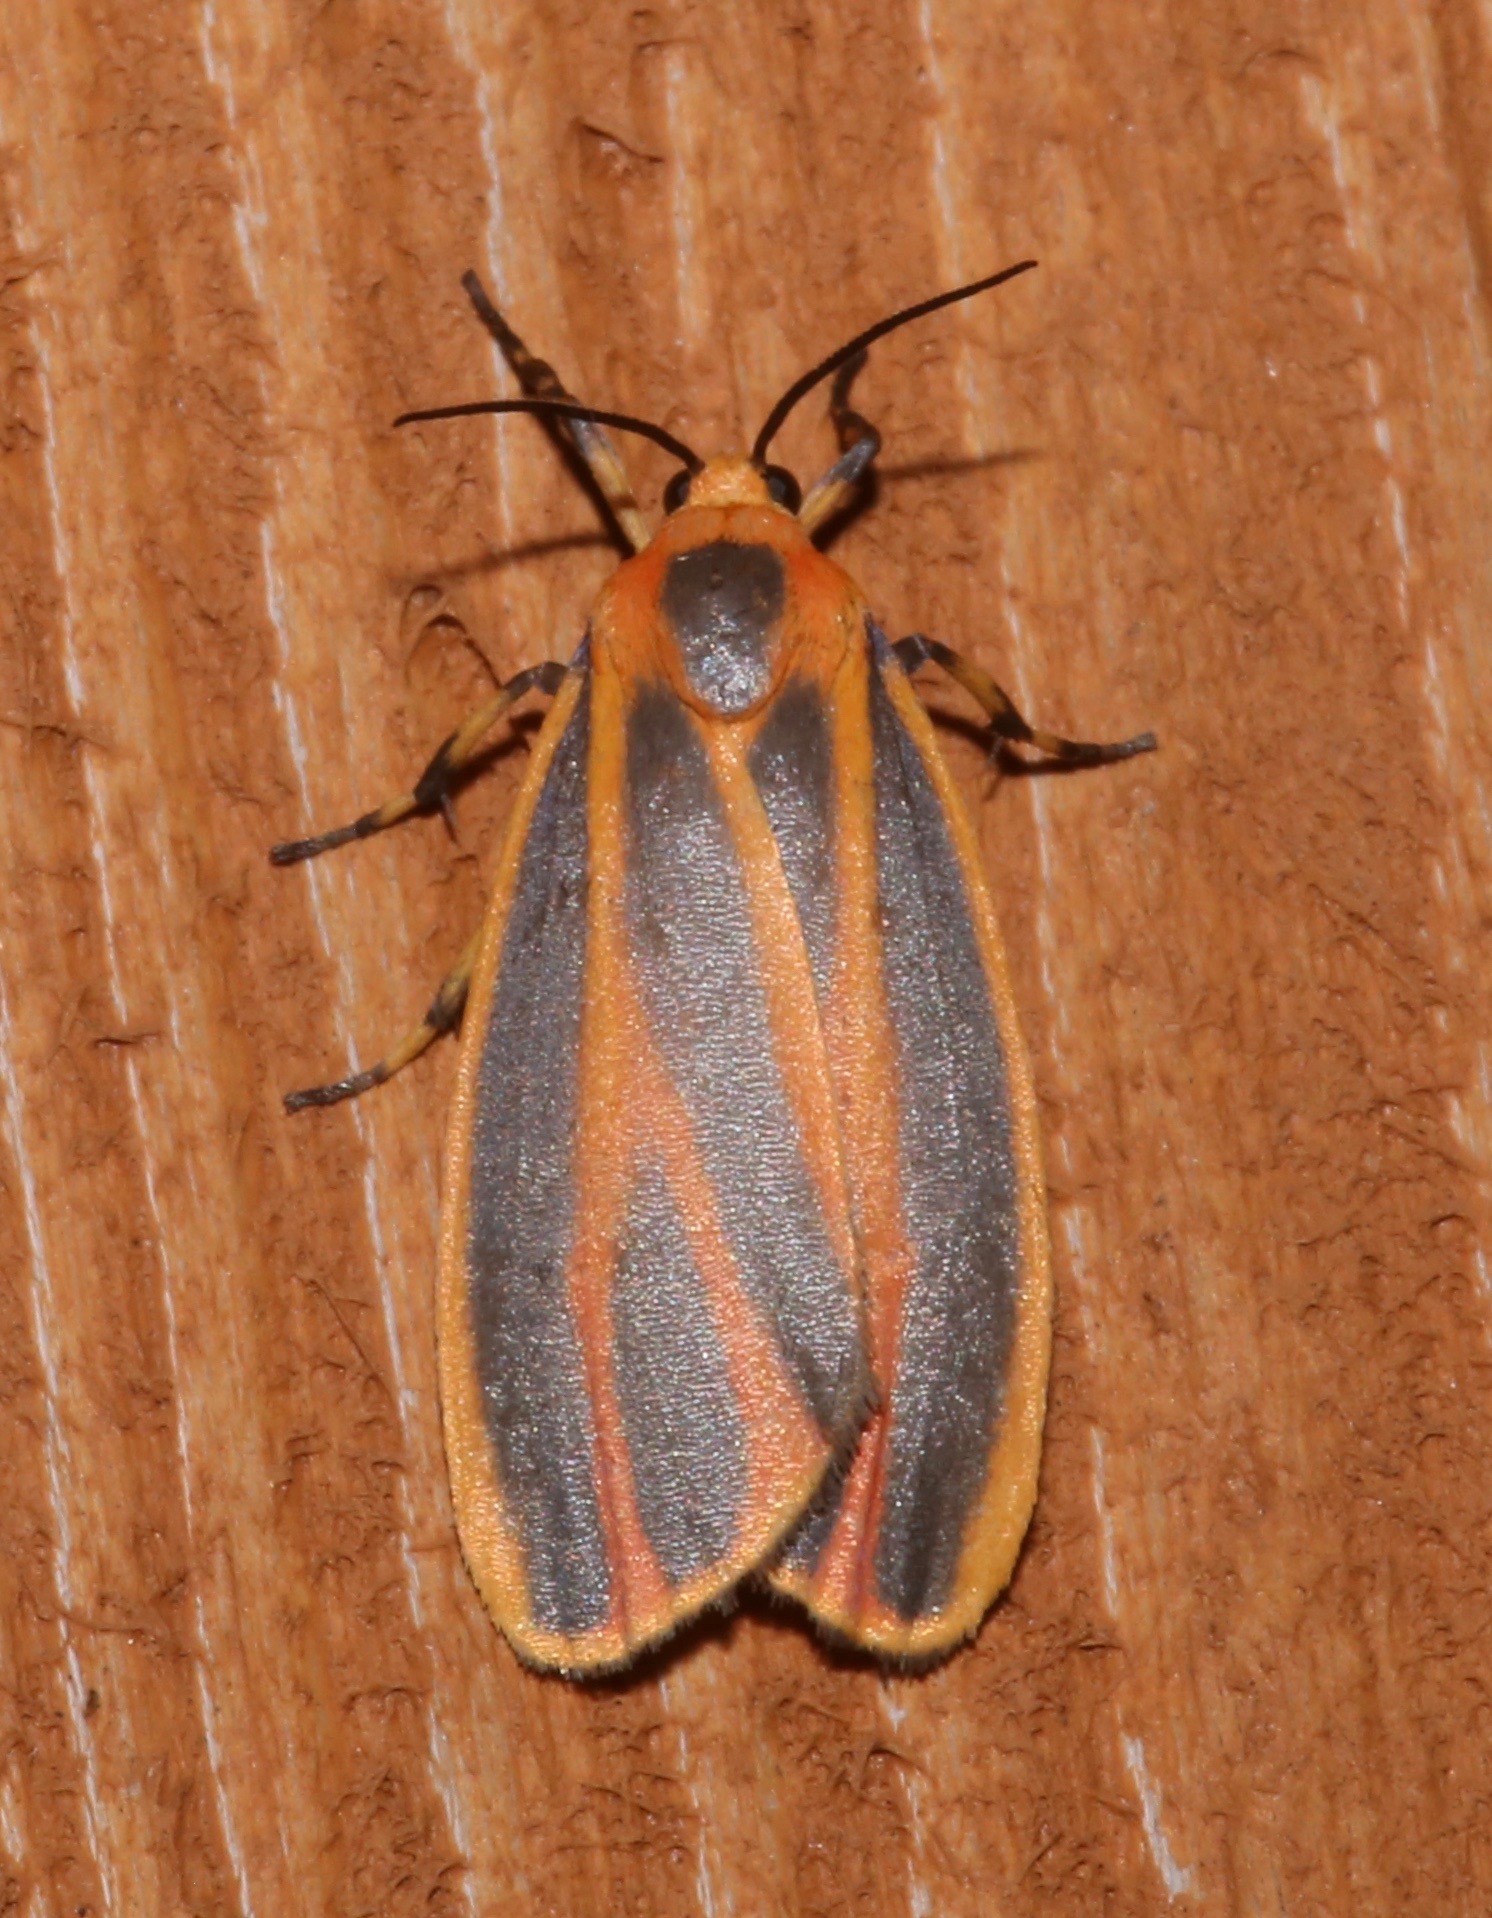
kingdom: Animalia
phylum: Arthropoda
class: Insecta
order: Lepidoptera
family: Erebidae
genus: Hypoprepia
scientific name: Hypoprepia fucosa
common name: Painted lichen moth
